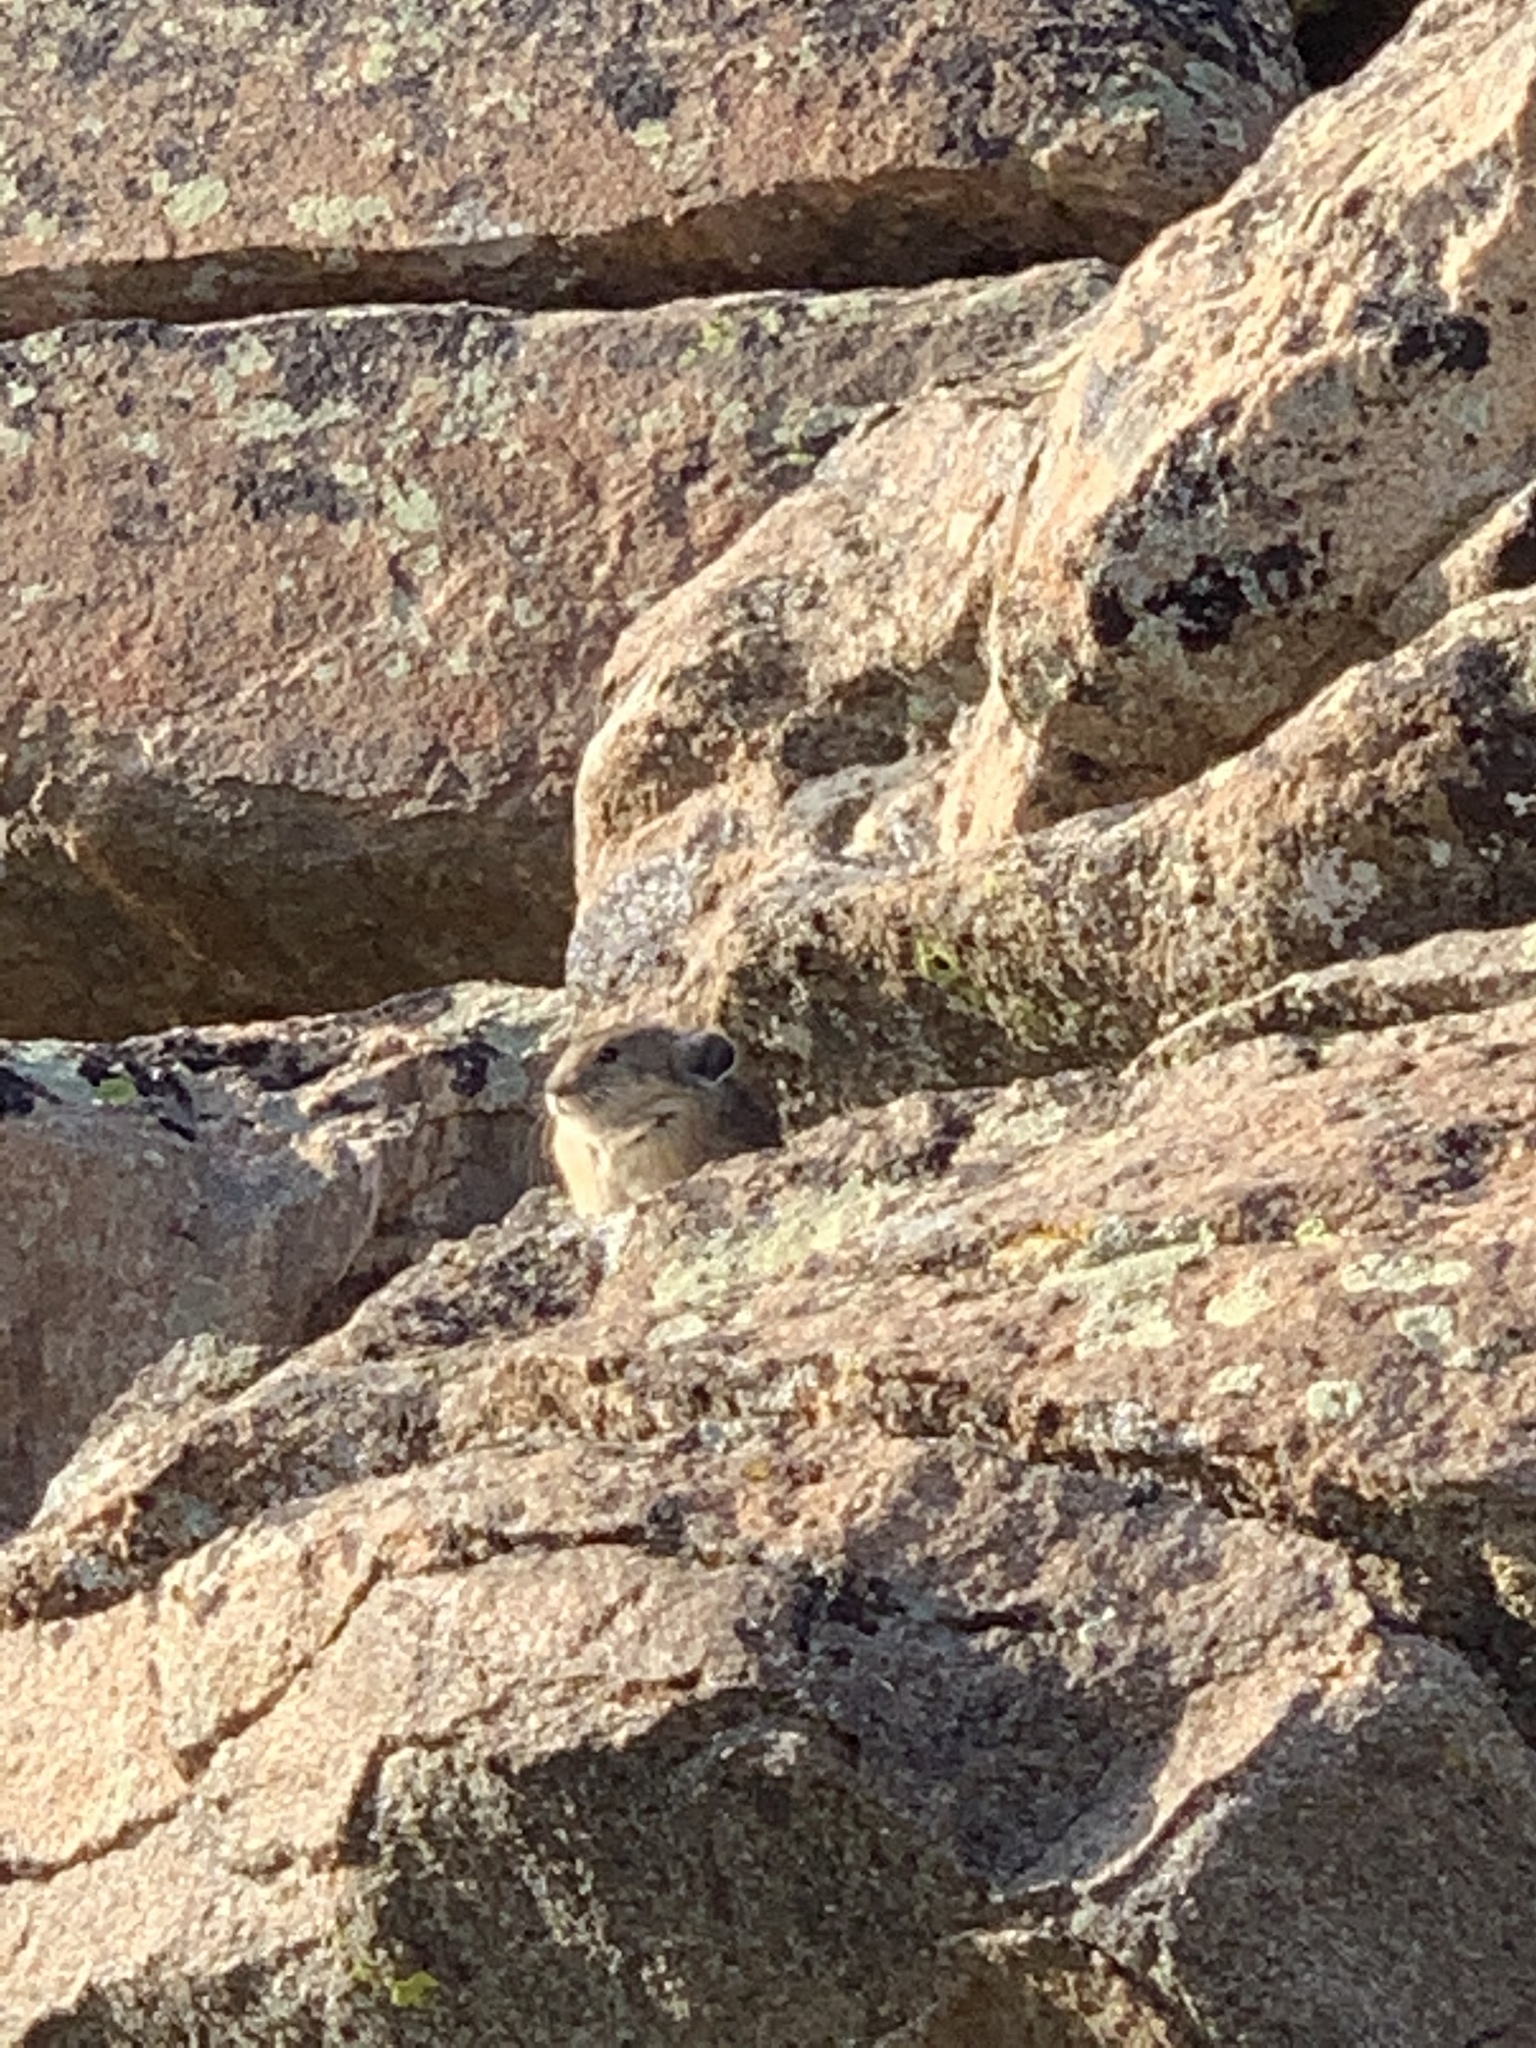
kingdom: Animalia
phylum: Chordata
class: Mammalia
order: Lagomorpha
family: Ochotonidae
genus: Ochotona
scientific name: Ochotona princeps
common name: American pika
